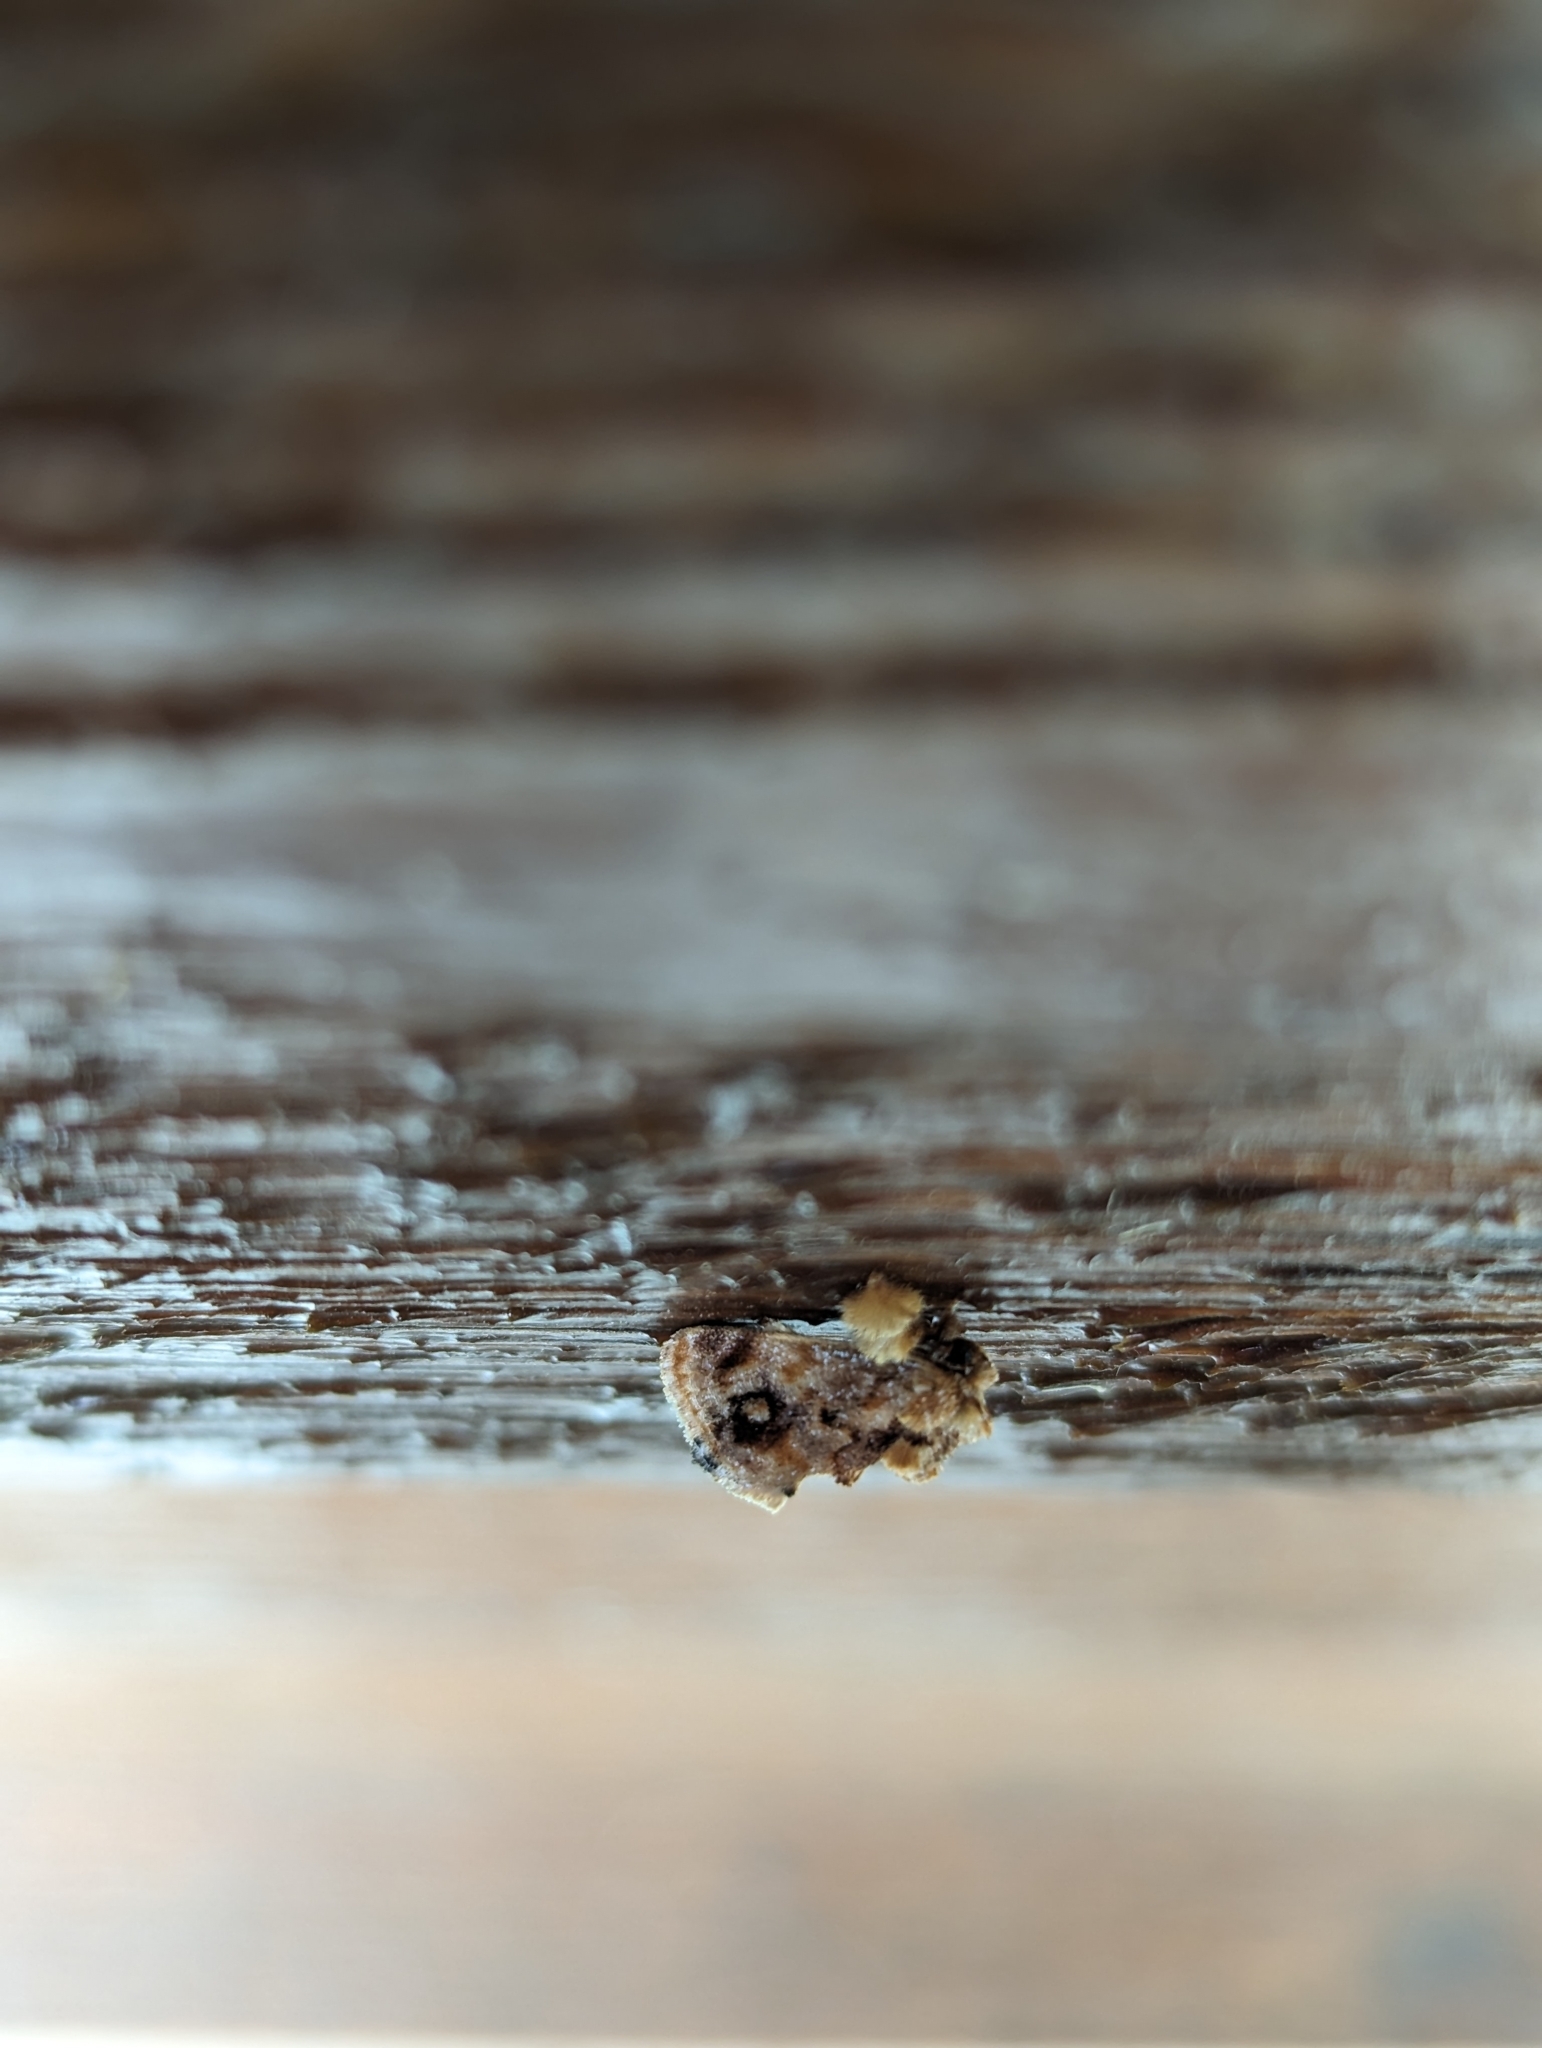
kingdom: Animalia
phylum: Arthropoda
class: Insecta
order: Lepidoptera
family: Limacodidae
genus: Isochaetes
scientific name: Isochaetes beutenmuelleri
